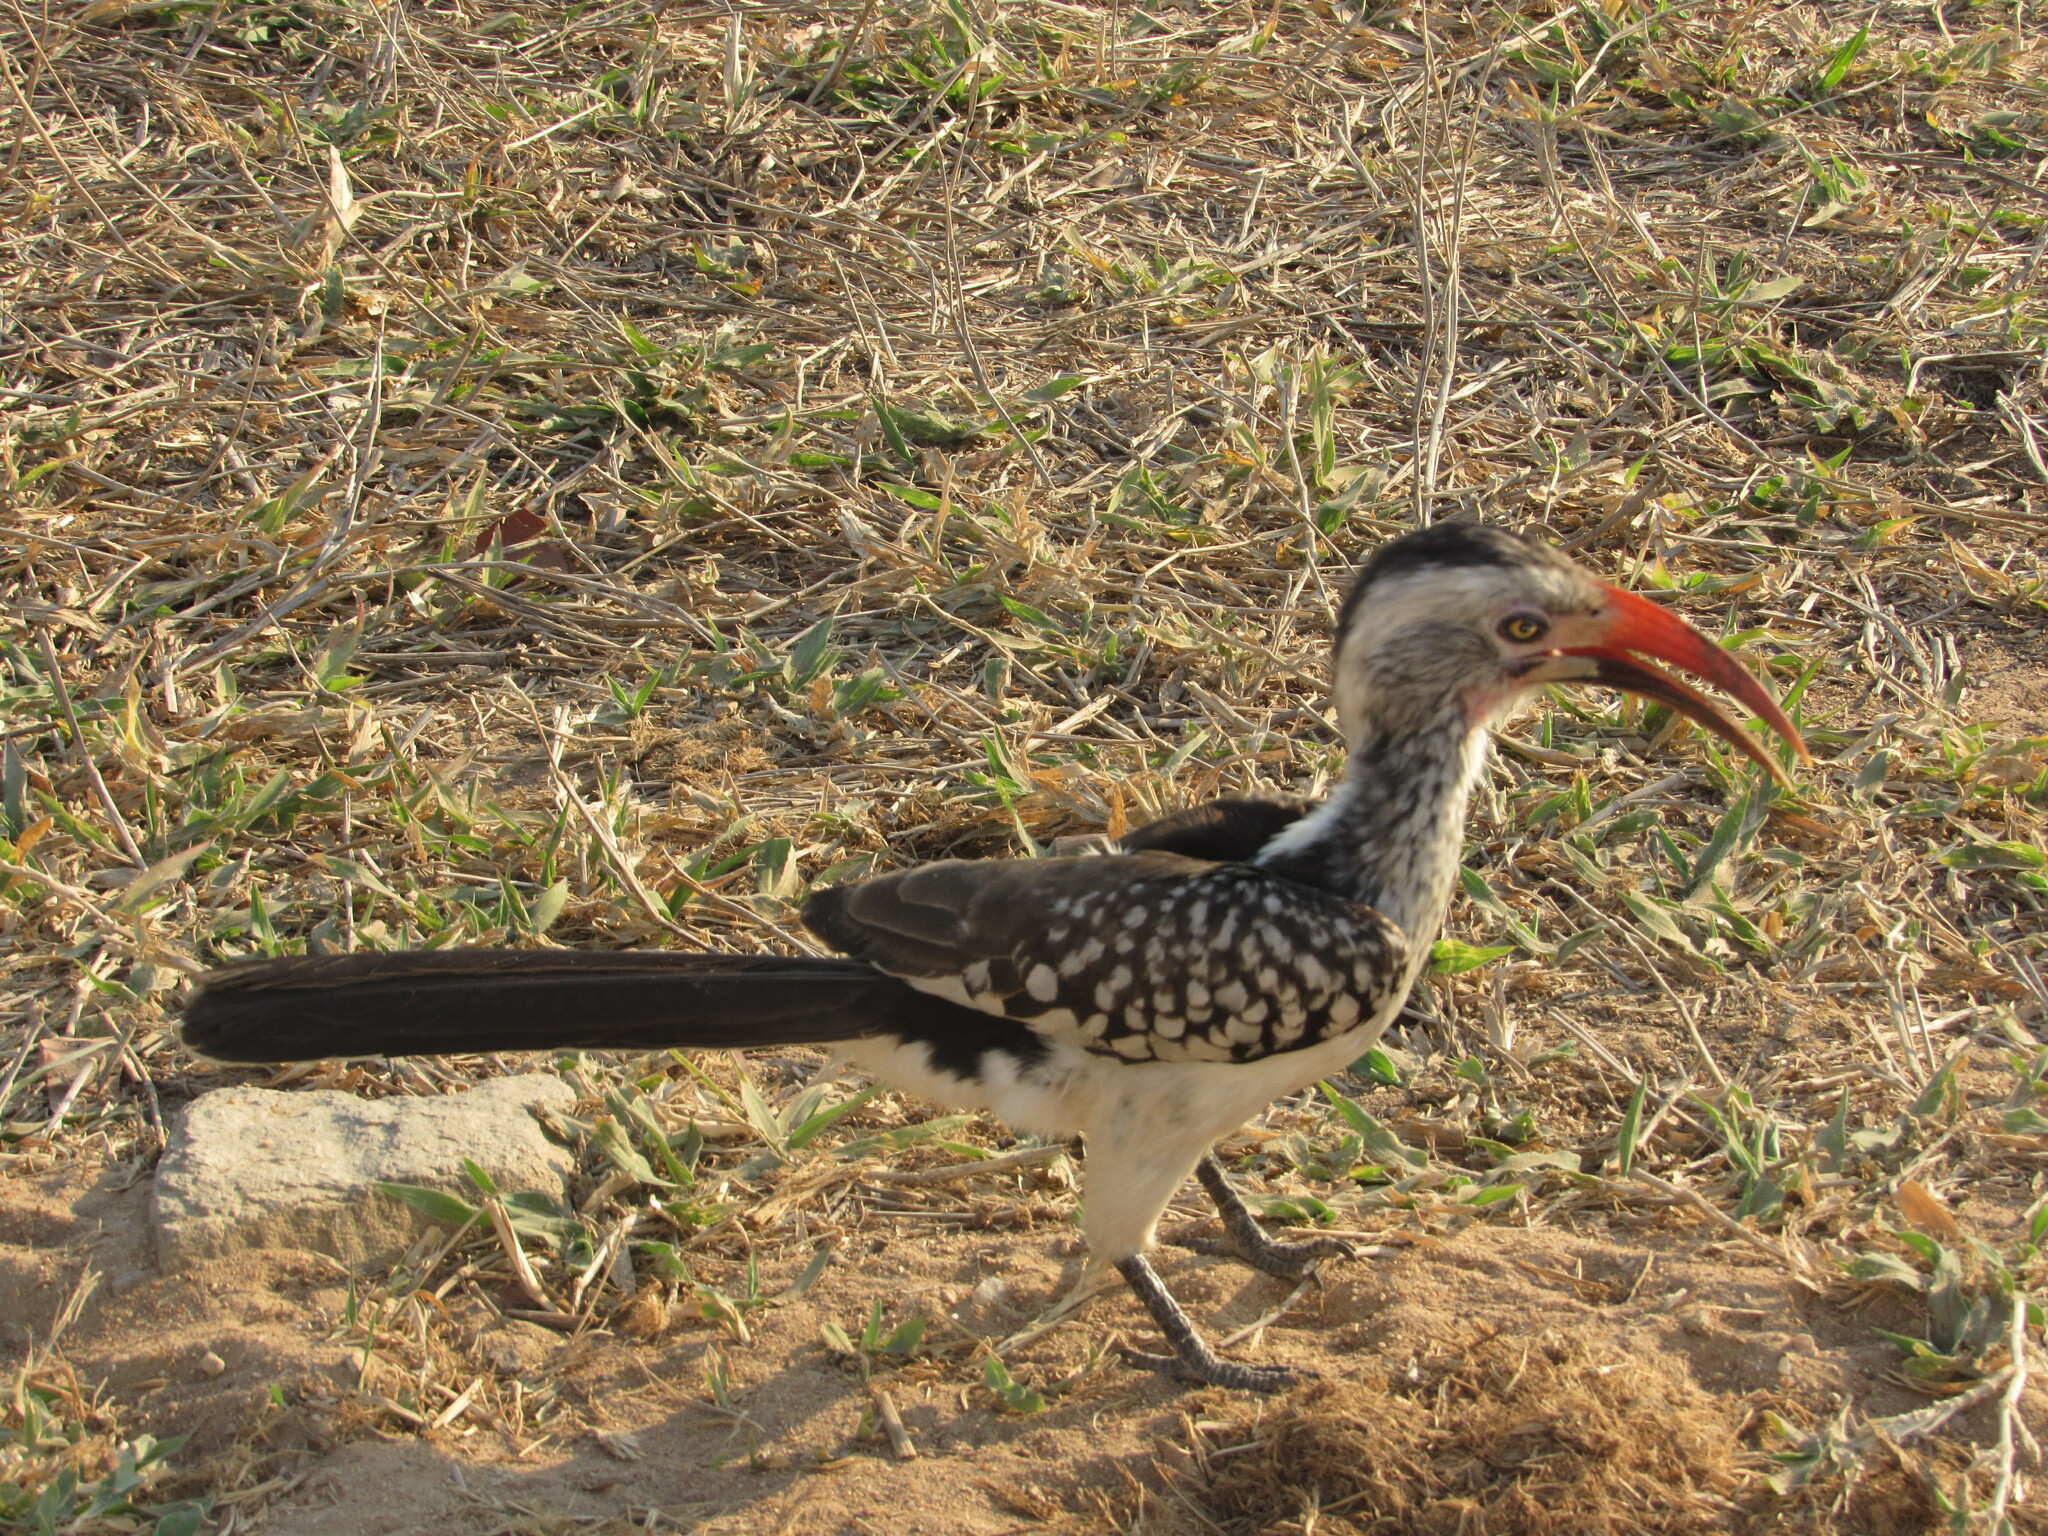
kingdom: Animalia
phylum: Chordata
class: Aves
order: Bucerotiformes
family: Bucerotidae
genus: Tockus
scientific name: Tockus rufirostris
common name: Southern red-billed hornbill
